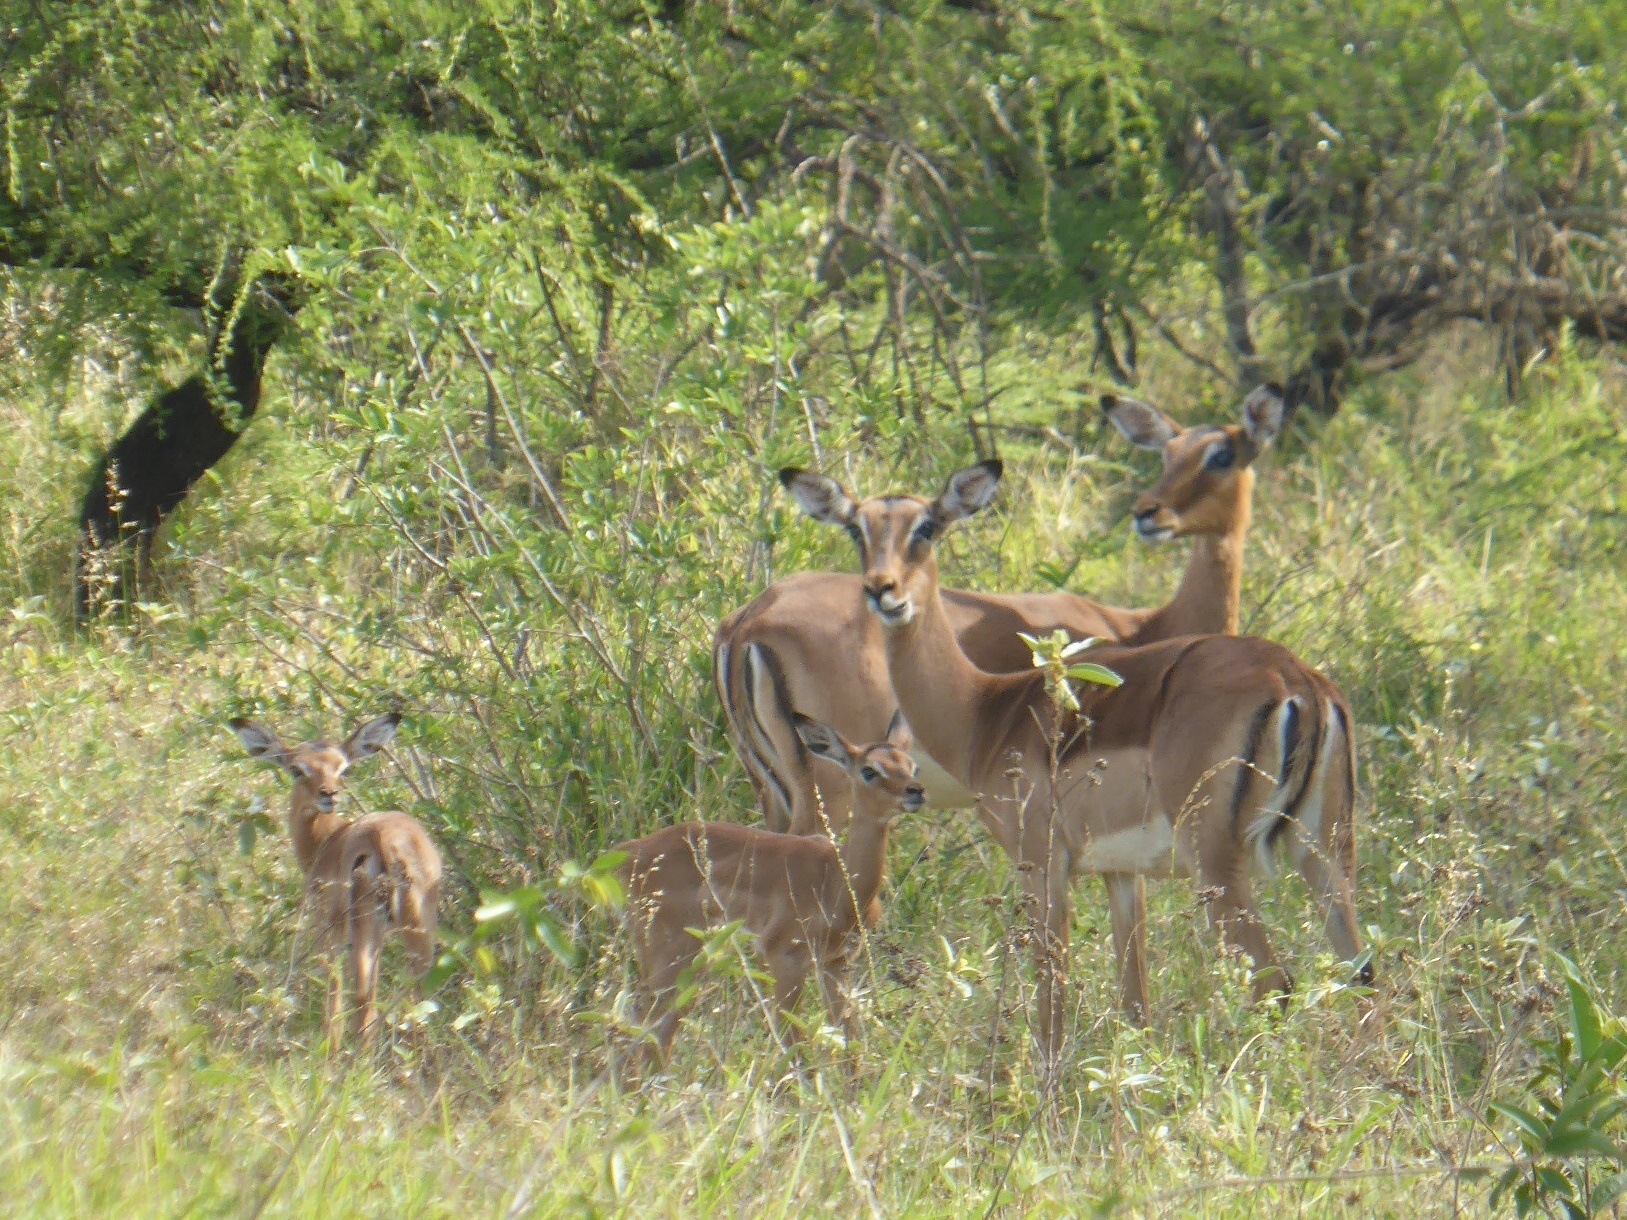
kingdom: Animalia
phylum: Chordata
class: Mammalia
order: Artiodactyla
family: Bovidae
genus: Aepyceros
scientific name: Aepyceros melampus
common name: Impala
